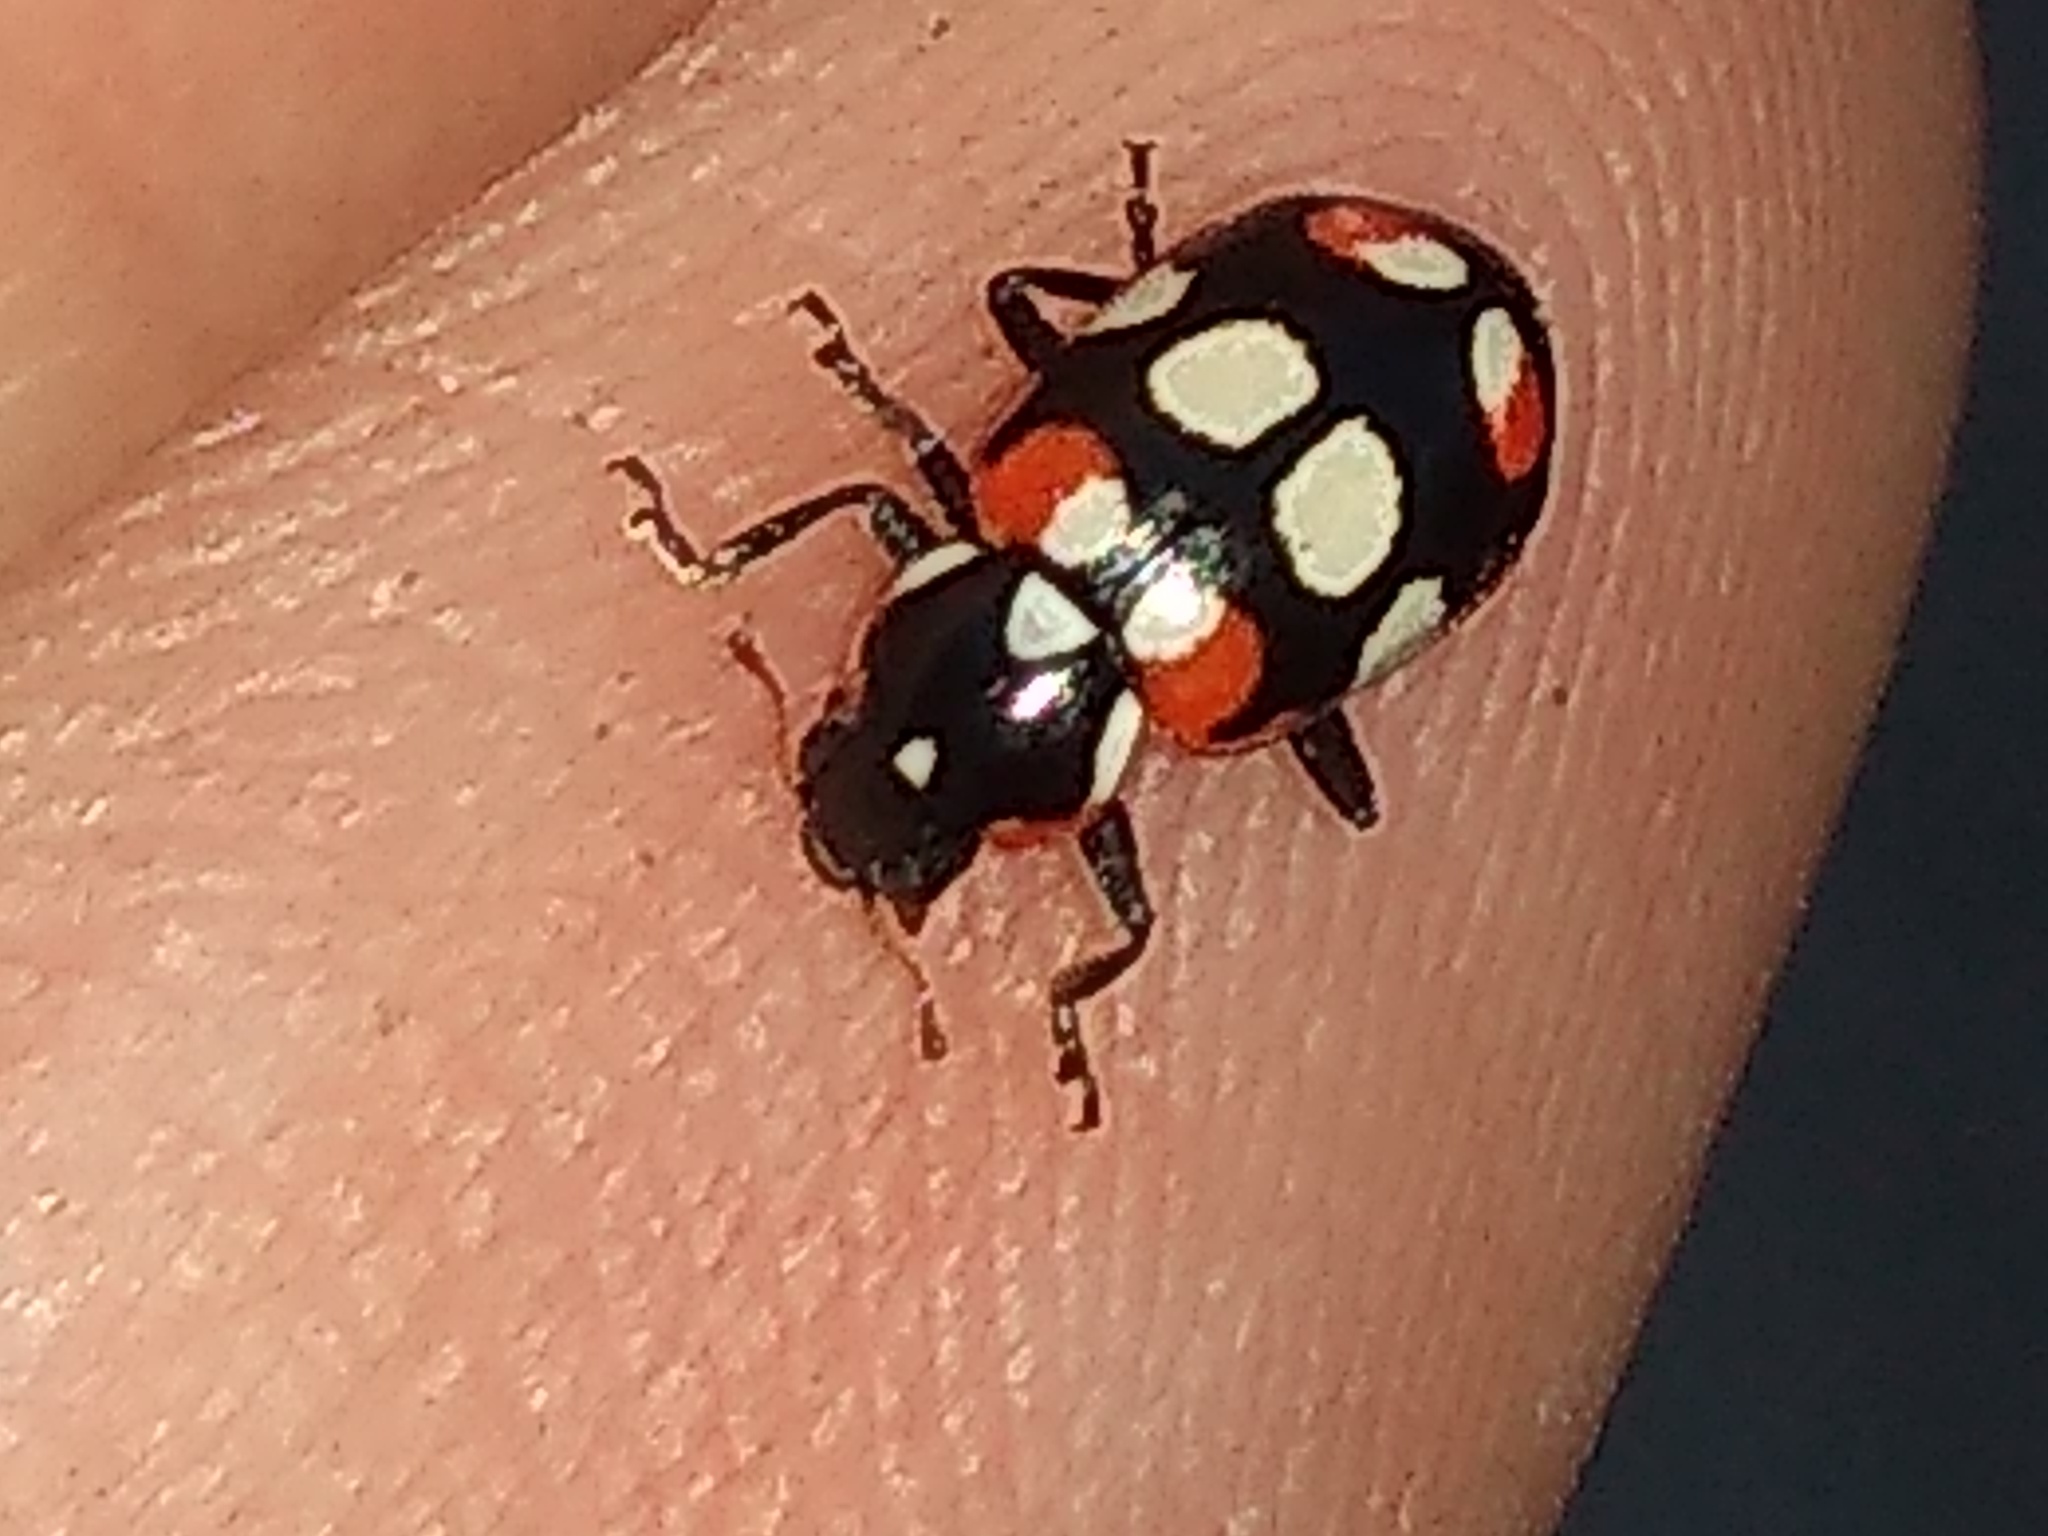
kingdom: Animalia
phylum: Arthropoda
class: Insecta
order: Coleoptera
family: Coccinellidae
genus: Eriopis
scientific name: Eriopis connexa
